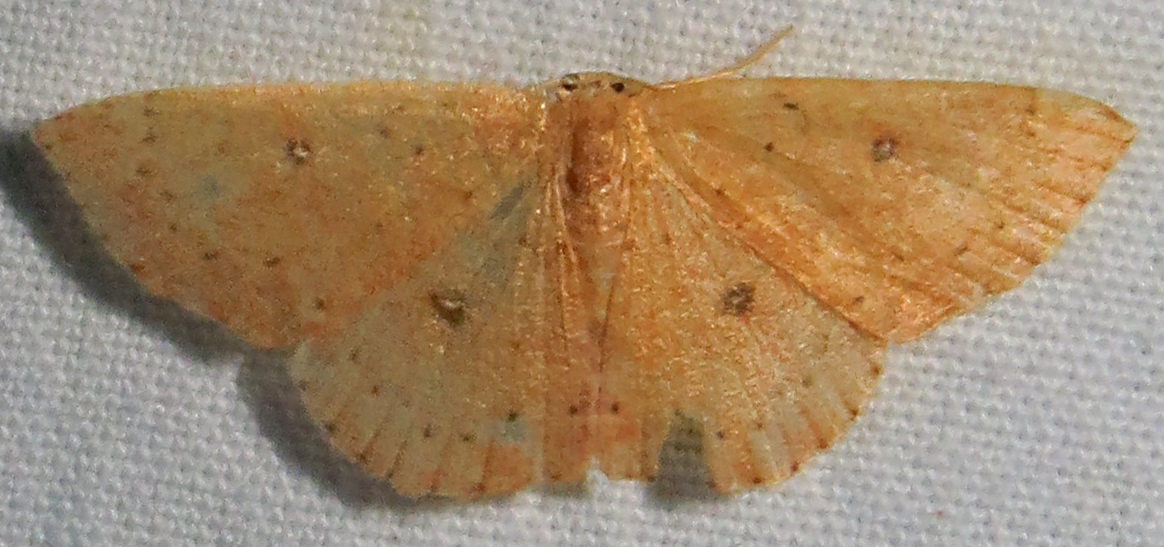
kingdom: Animalia
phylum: Arthropoda
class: Insecta
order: Lepidoptera
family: Geometridae
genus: Cyclophora
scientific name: Cyclophora packardi
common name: Packard's wave
